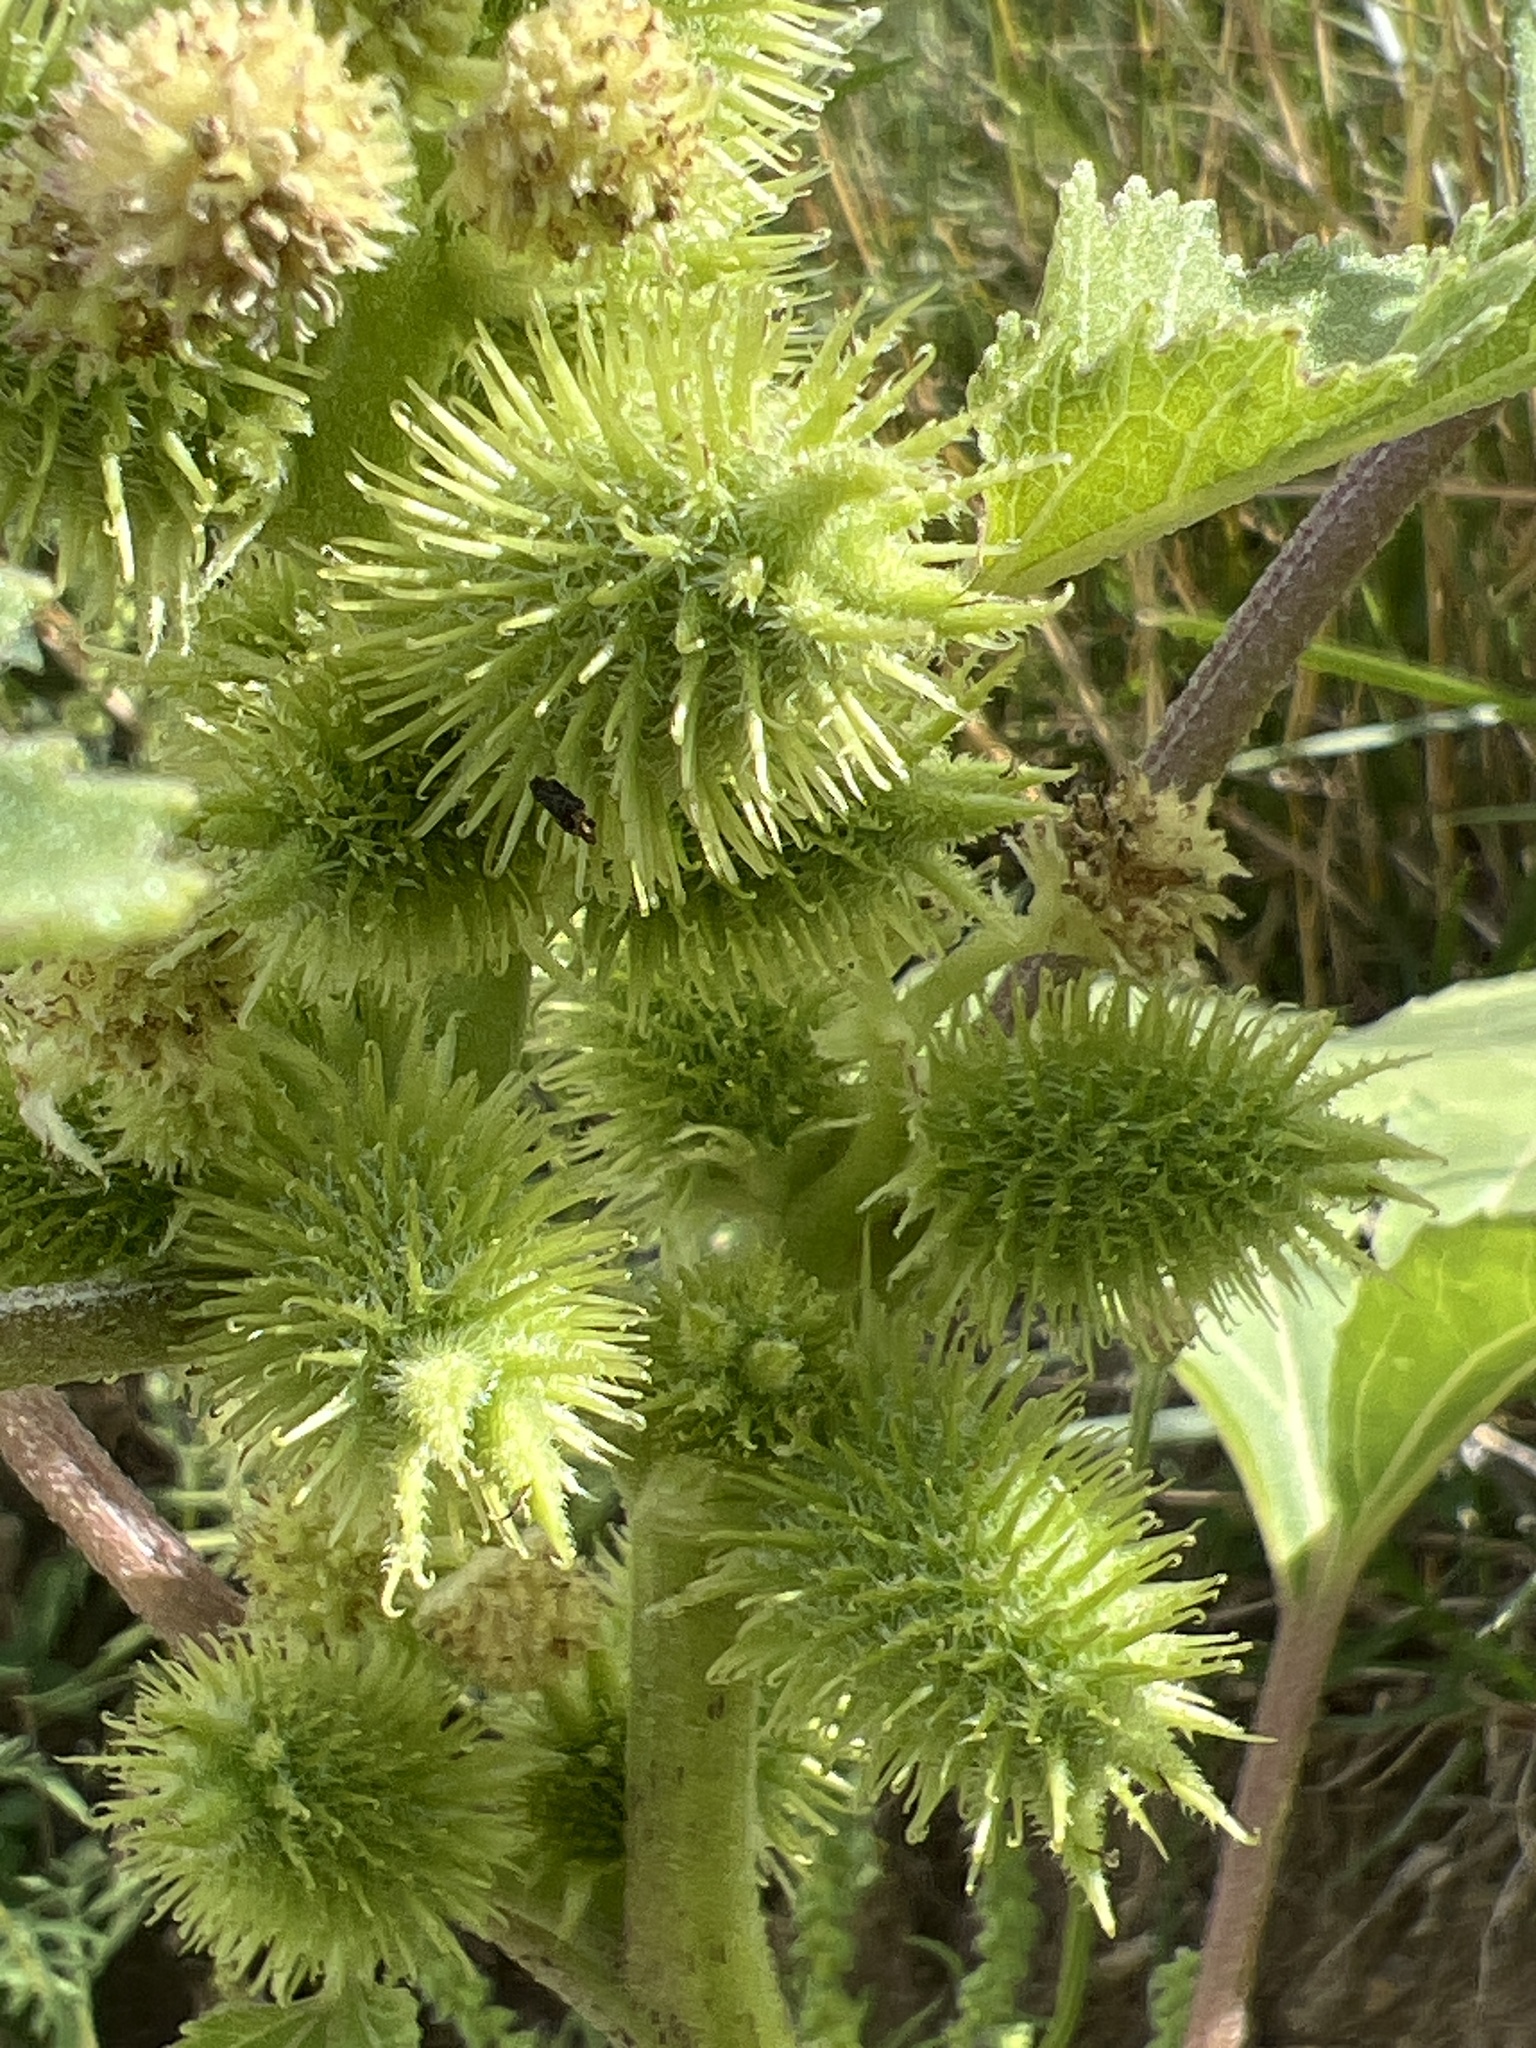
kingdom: Plantae
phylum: Tracheophyta
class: Magnoliopsida
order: Asterales
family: Asteraceae
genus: Xanthium
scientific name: Xanthium strumarium
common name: Rough cocklebur
